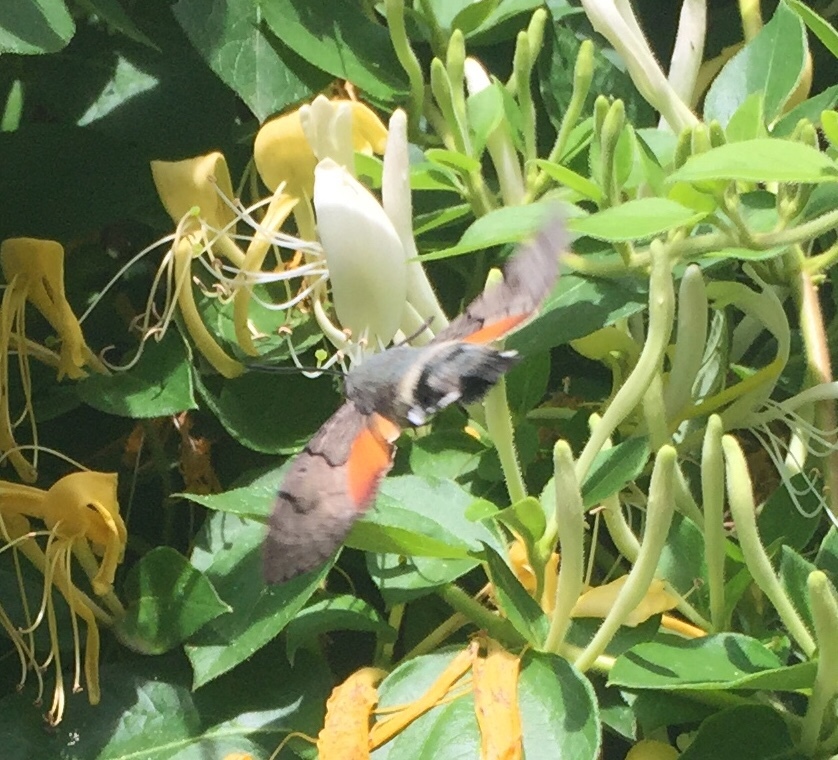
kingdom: Animalia
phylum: Arthropoda
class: Insecta
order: Lepidoptera
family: Sphingidae
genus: Macroglossum
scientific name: Macroglossum stellatarum
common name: Humming-bird hawk-moth
